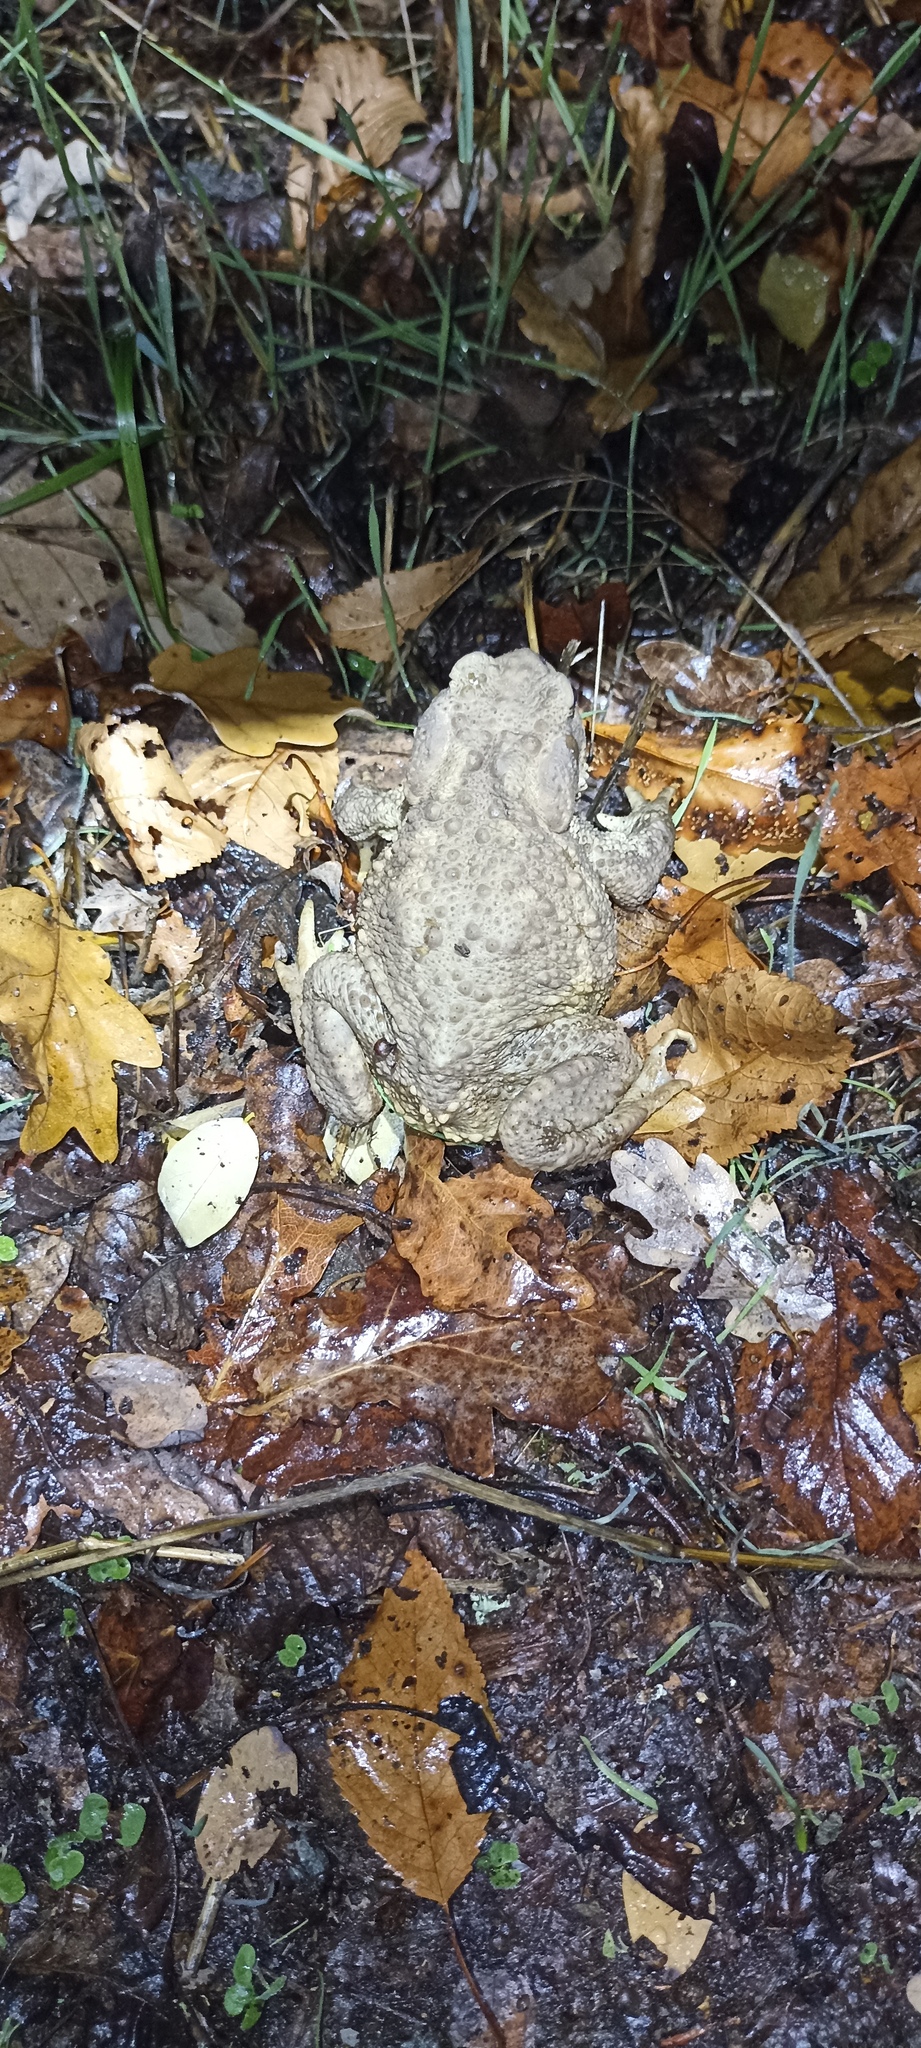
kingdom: Animalia
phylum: Chordata
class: Amphibia
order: Anura
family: Bufonidae
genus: Bufo
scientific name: Bufo spinosus
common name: Western common toad
